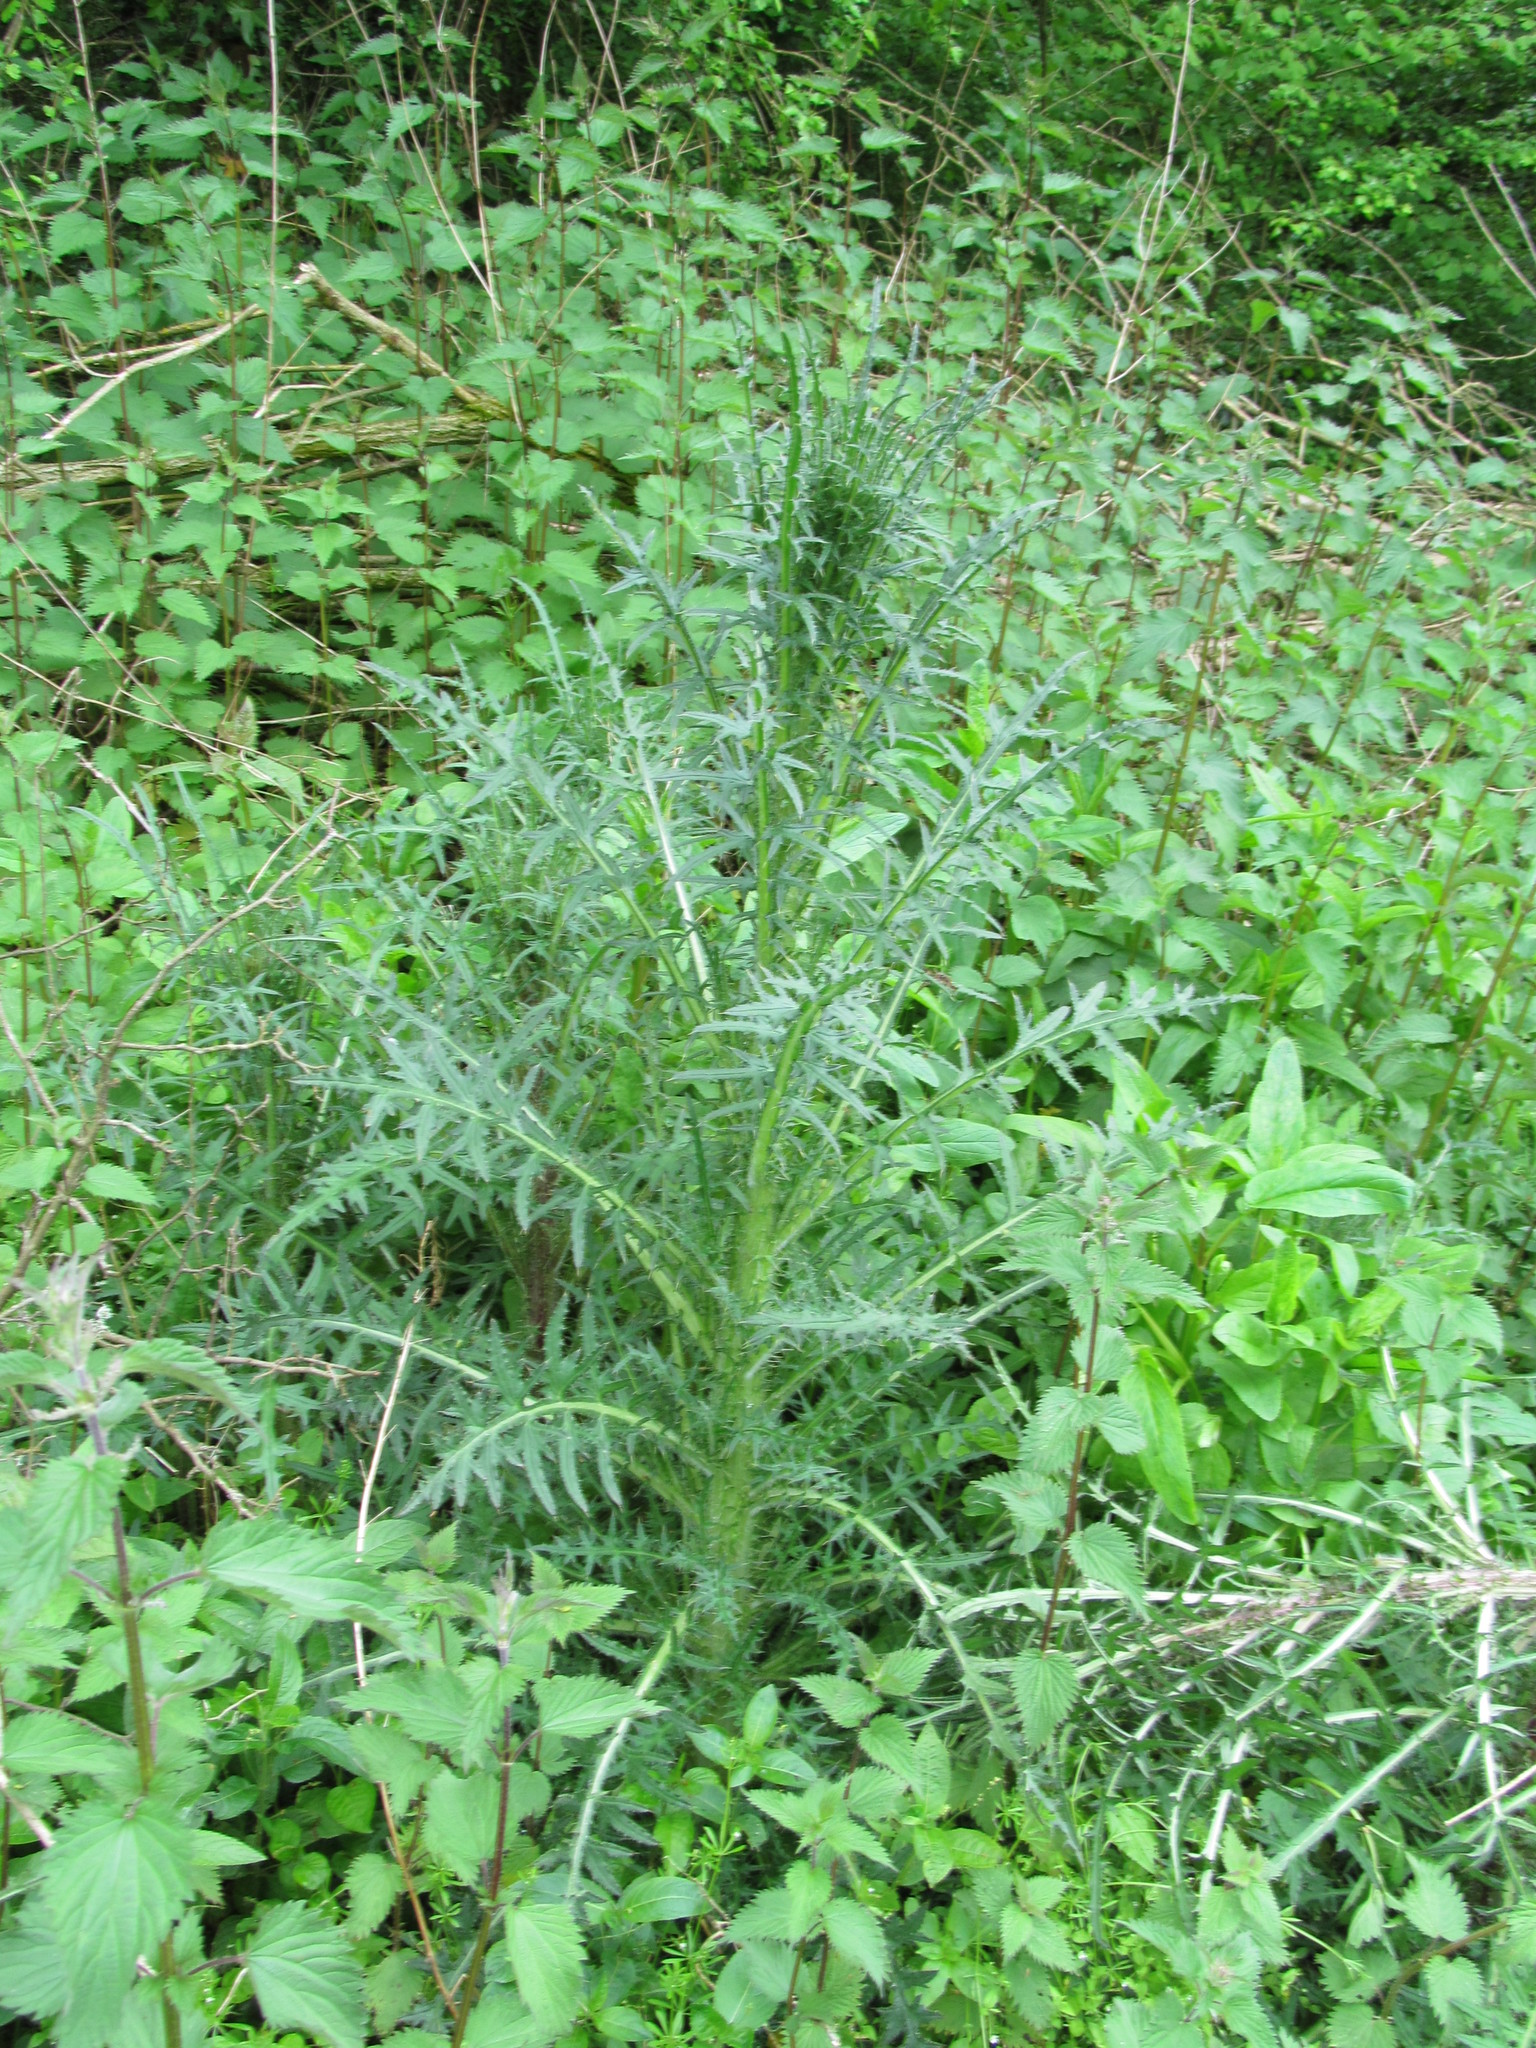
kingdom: Plantae
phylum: Tracheophyta
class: Magnoliopsida
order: Asterales
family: Asteraceae
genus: Cirsium
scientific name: Cirsium palustre
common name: Marsh thistle
